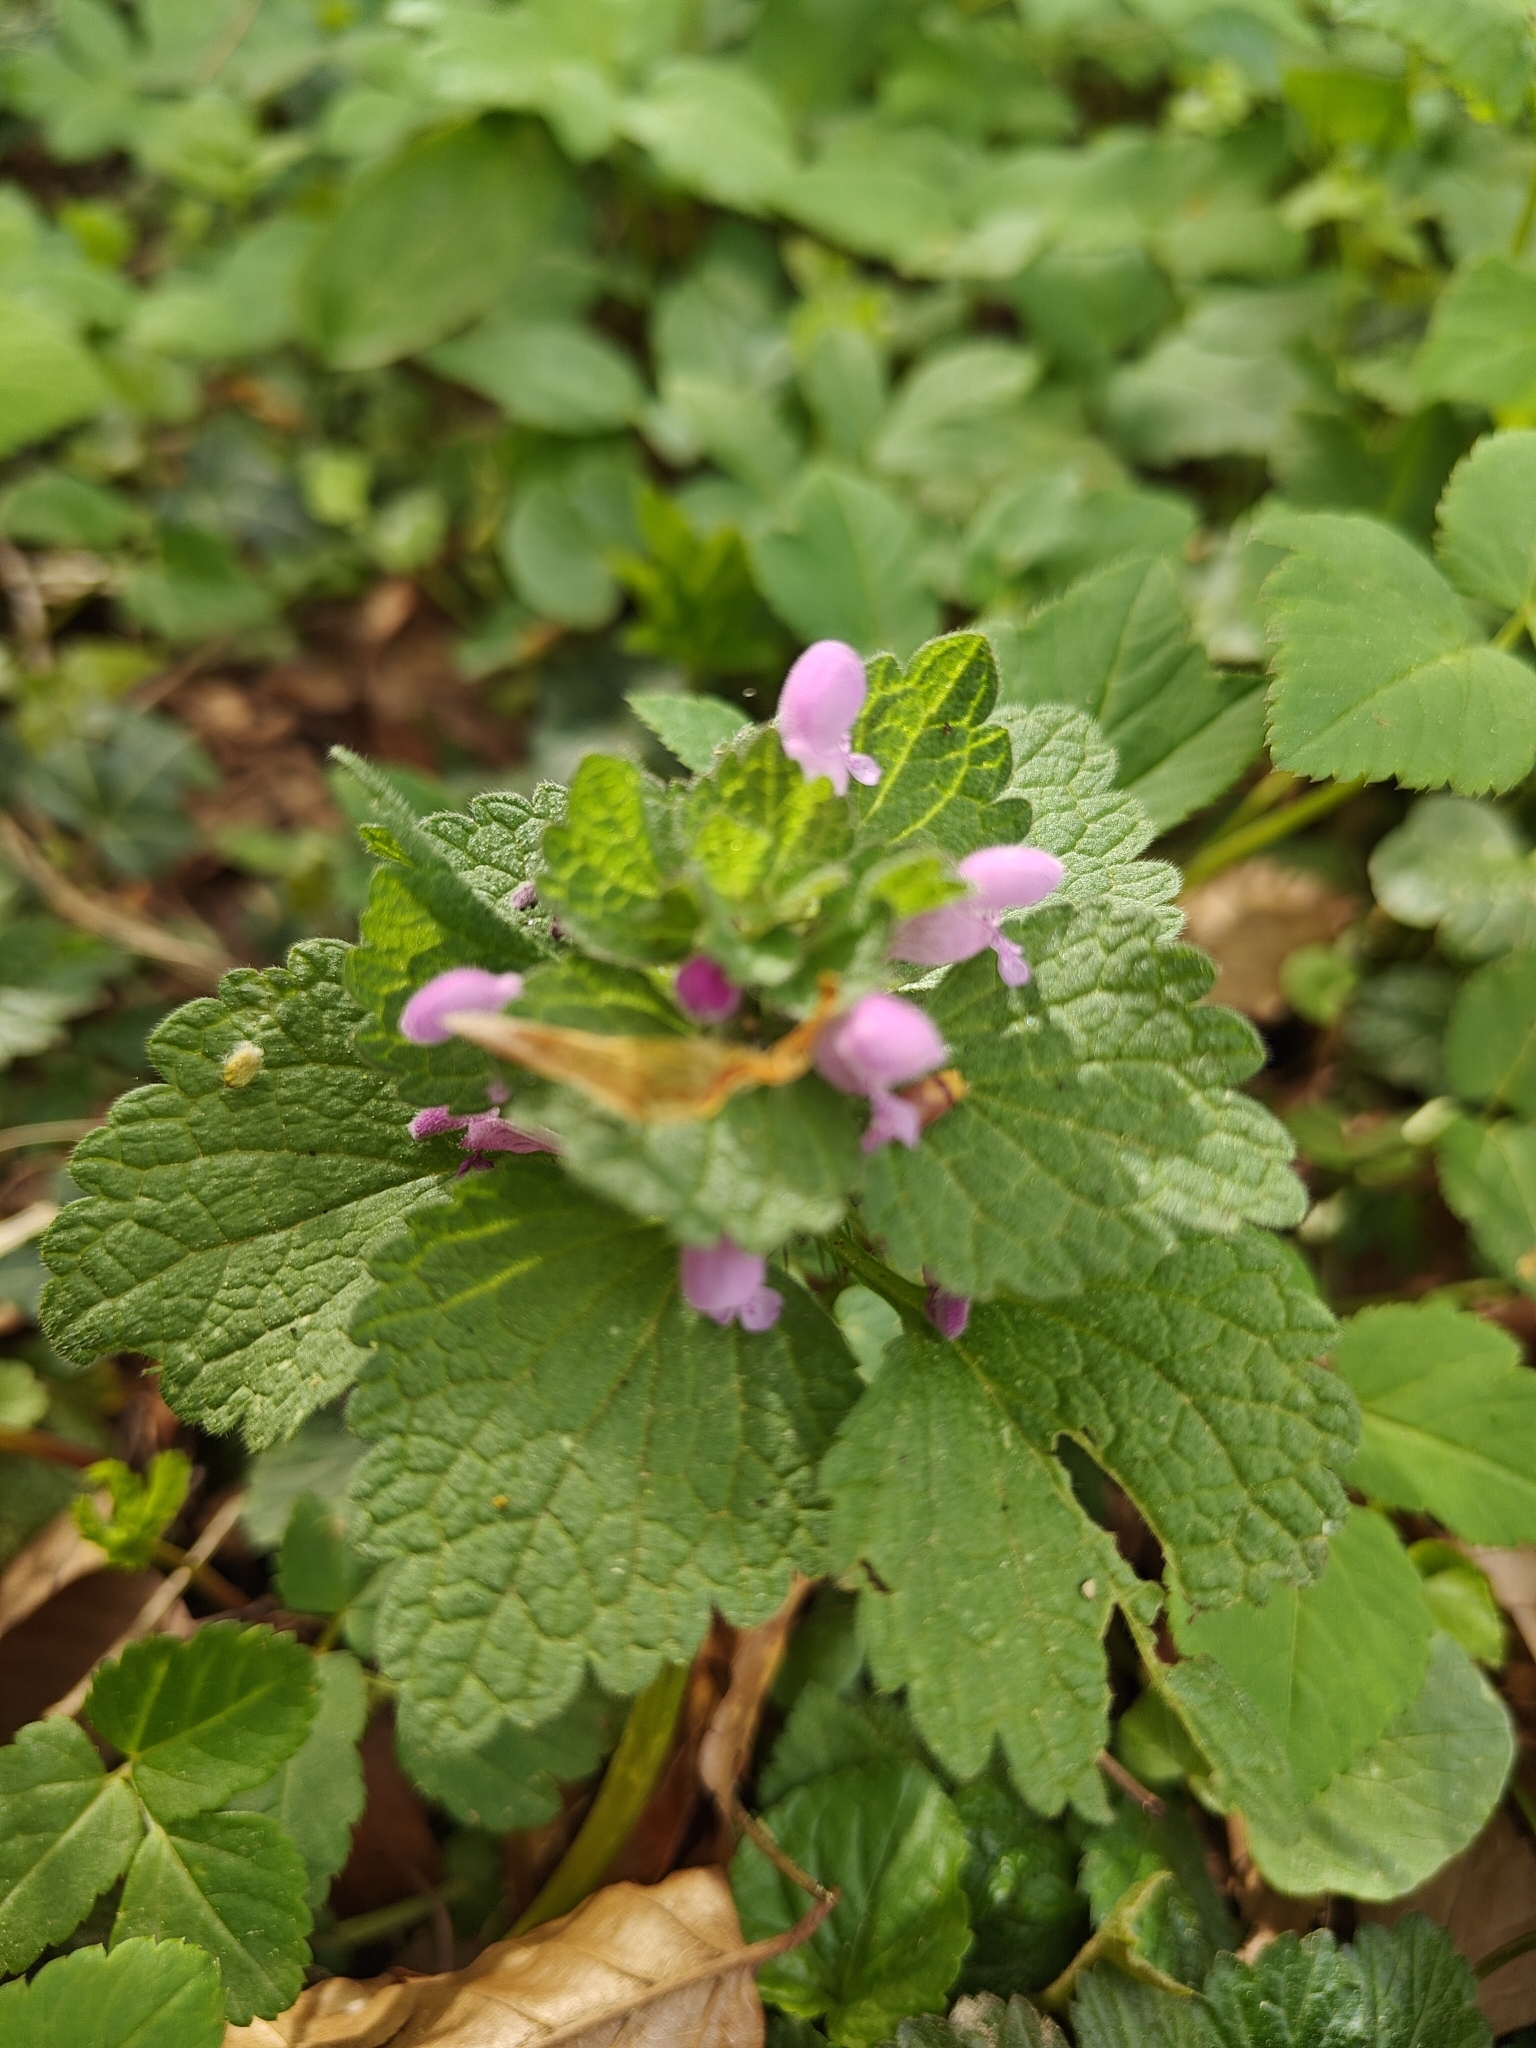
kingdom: Plantae
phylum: Tracheophyta
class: Magnoliopsida
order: Lamiales
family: Lamiaceae
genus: Lamium
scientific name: Lamium purpureum
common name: Red dead-nettle
